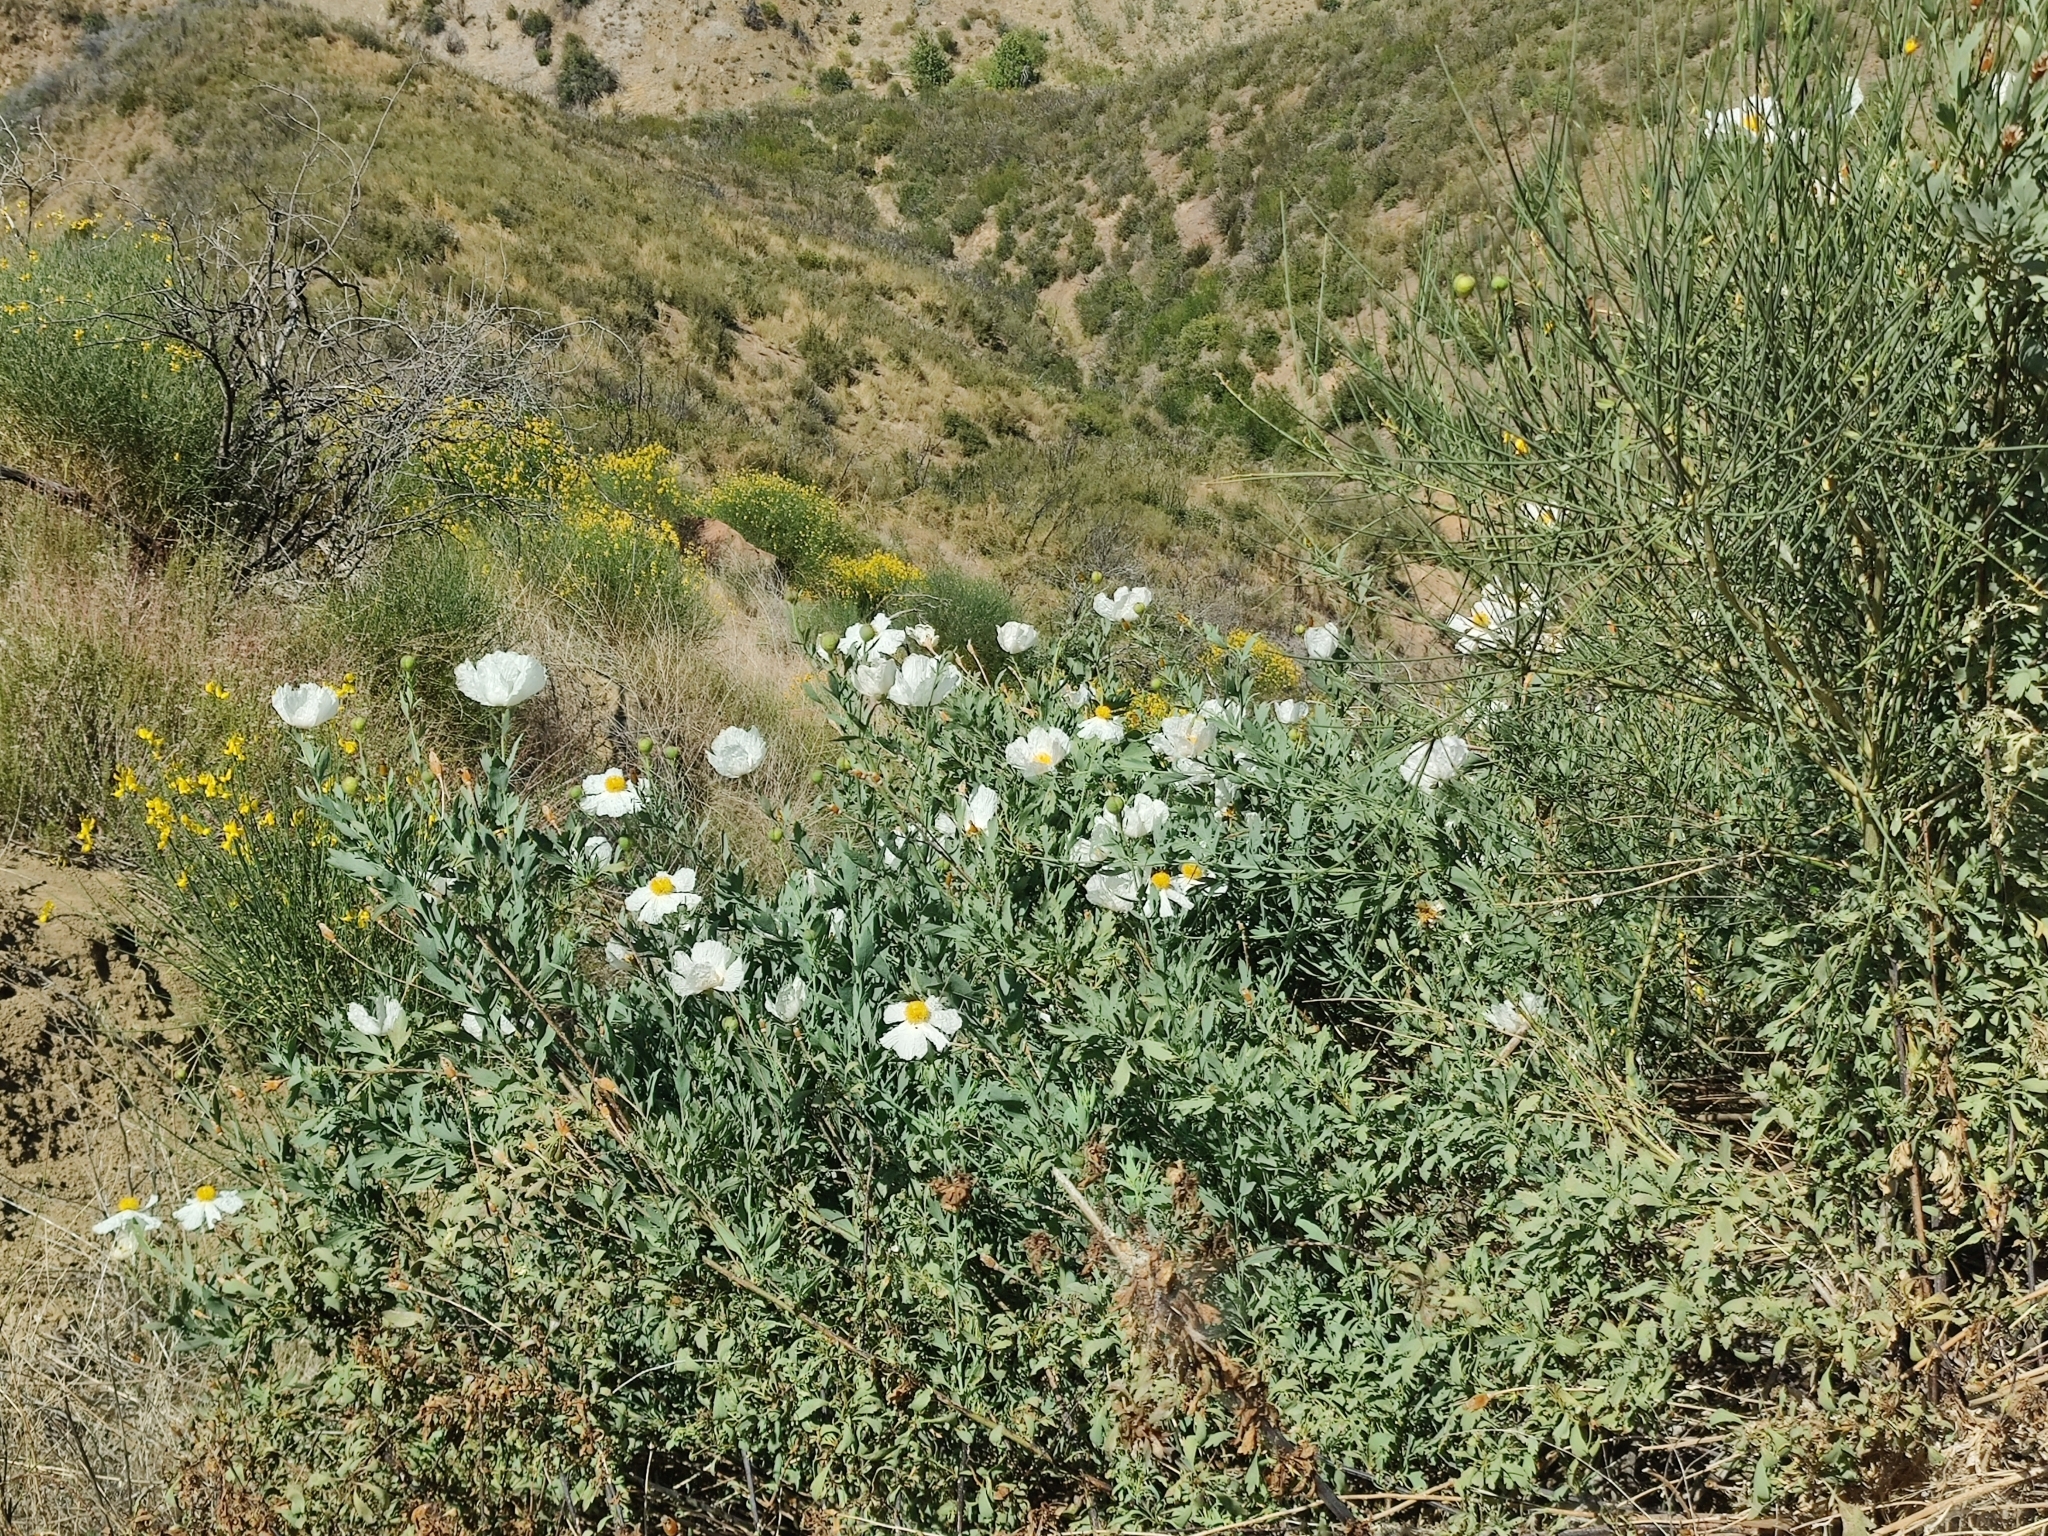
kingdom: Plantae
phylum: Tracheophyta
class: Magnoliopsida
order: Ranunculales
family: Papaveraceae
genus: Romneya
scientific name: Romneya trichocalyx
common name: Hairy matilija-poppy
